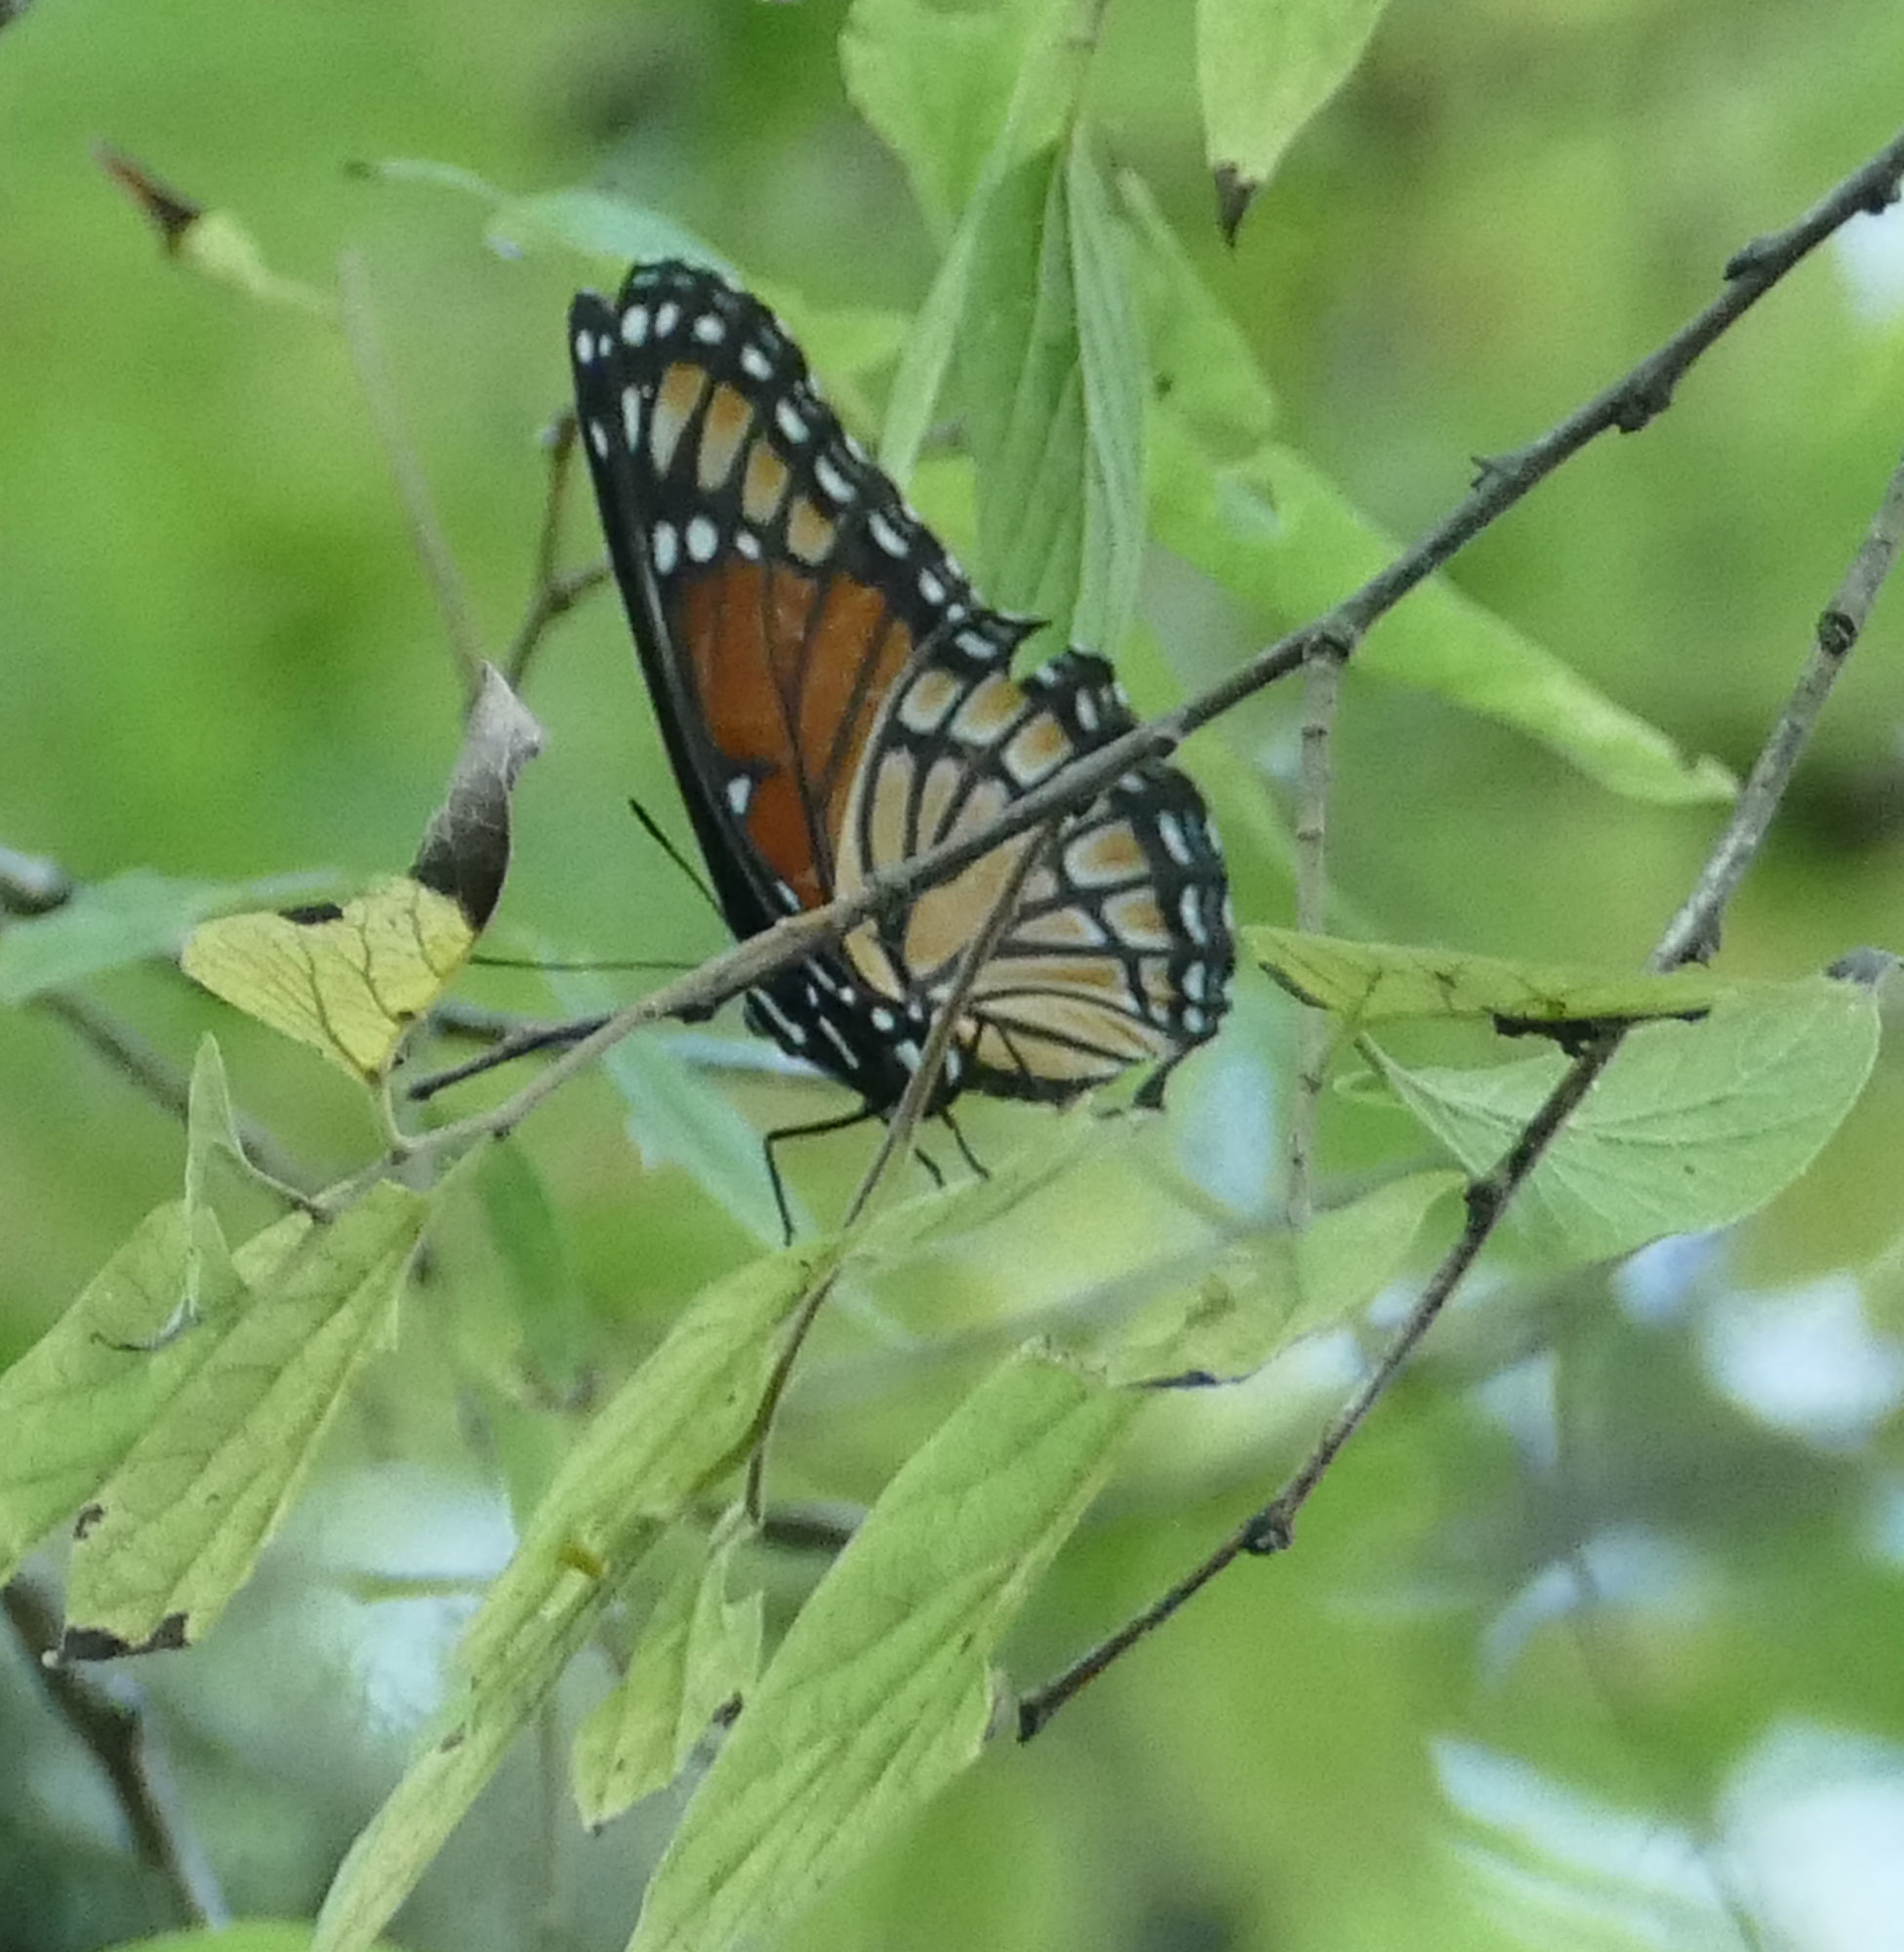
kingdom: Animalia
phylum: Arthropoda
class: Insecta
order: Lepidoptera
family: Nymphalidae
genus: Limenitis
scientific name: Limenitis archippus
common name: Viceroy
